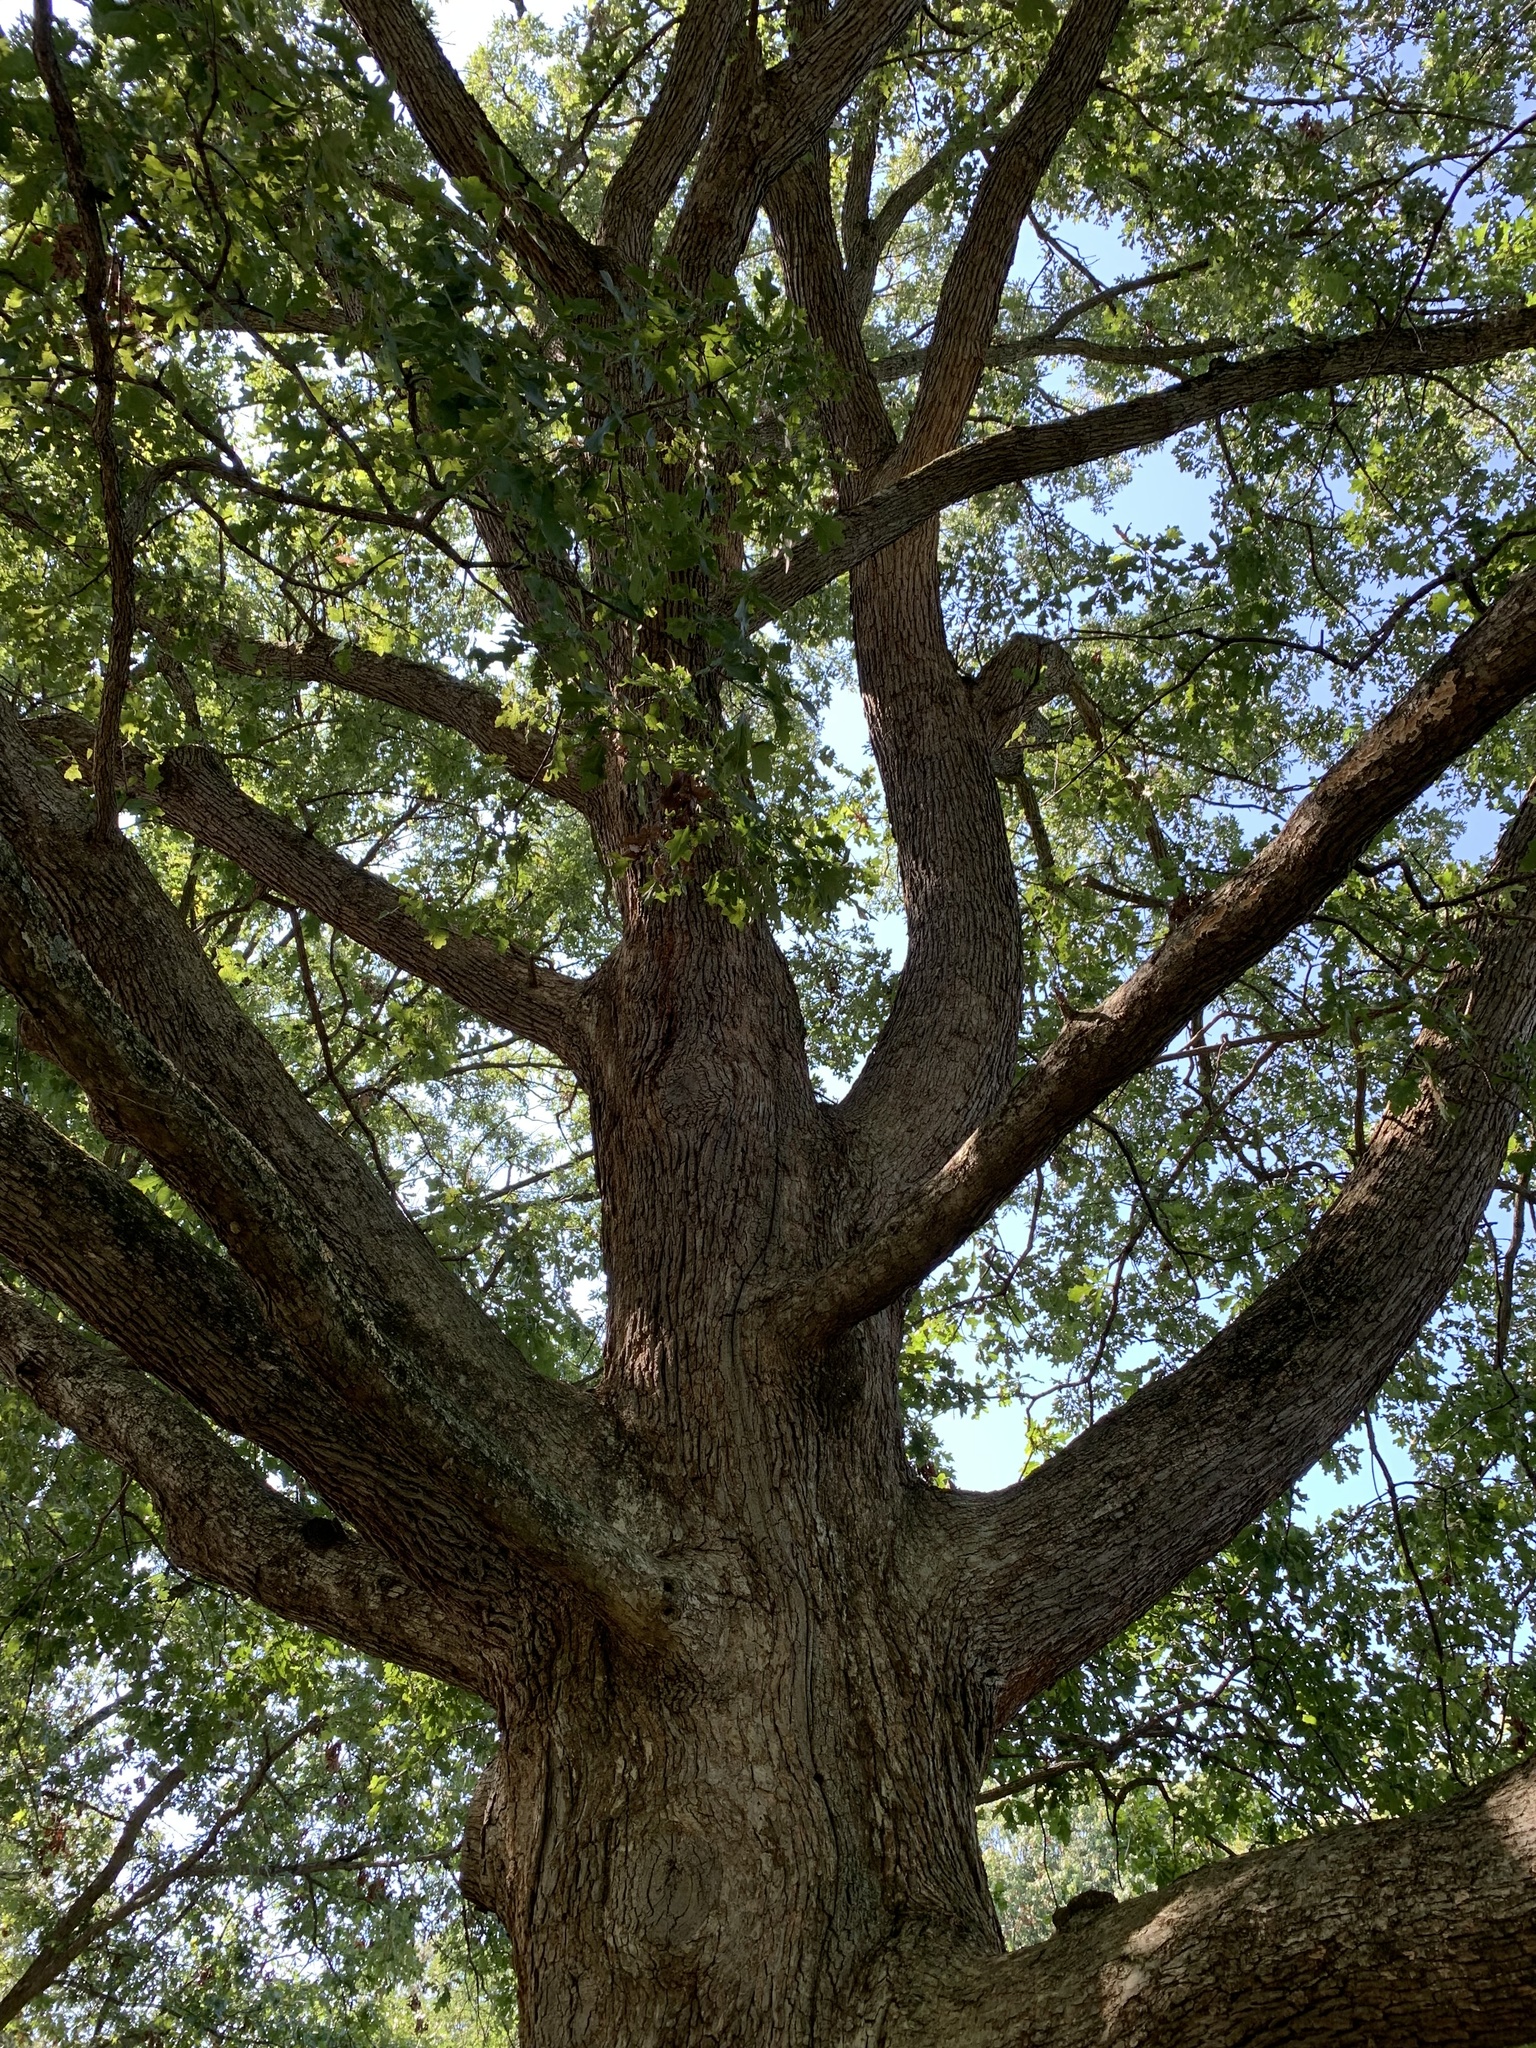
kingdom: Plantae
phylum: Tracheophyta
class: Magnoliopsida
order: Fagales
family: Fagaceae
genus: Quercus
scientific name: Quercus lyrata
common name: Overcup oak
